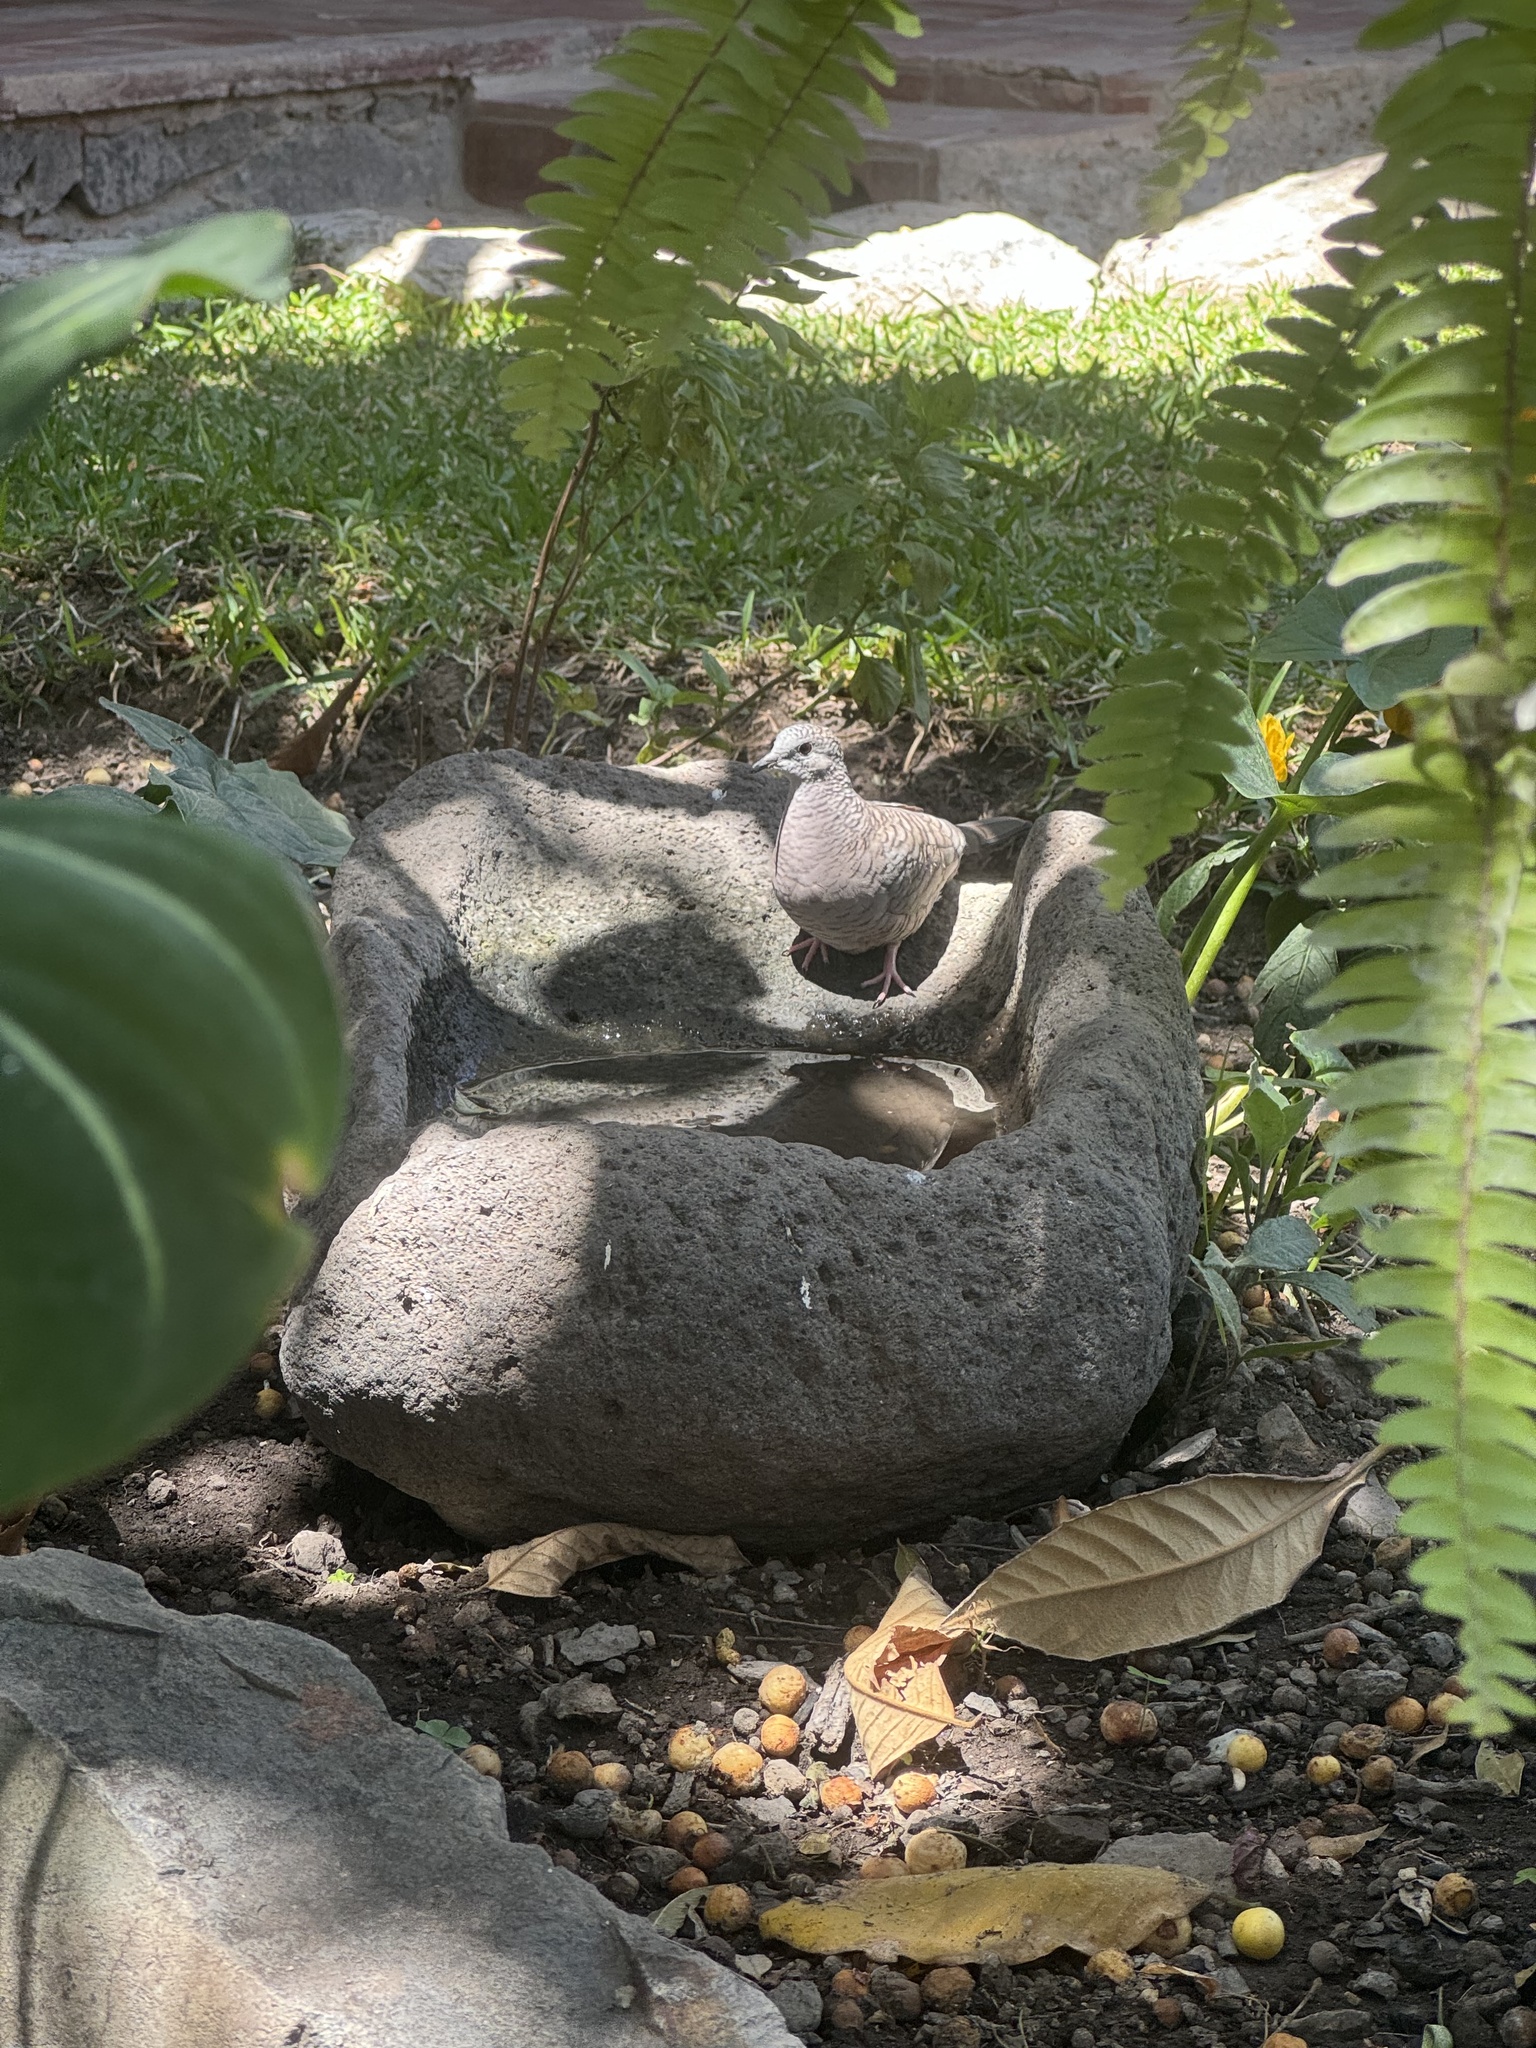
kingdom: Animalia
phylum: Chordata
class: Aves
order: Columbiformes
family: Columbidae
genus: Columbina
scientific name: Columbina inca
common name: Inca dove
